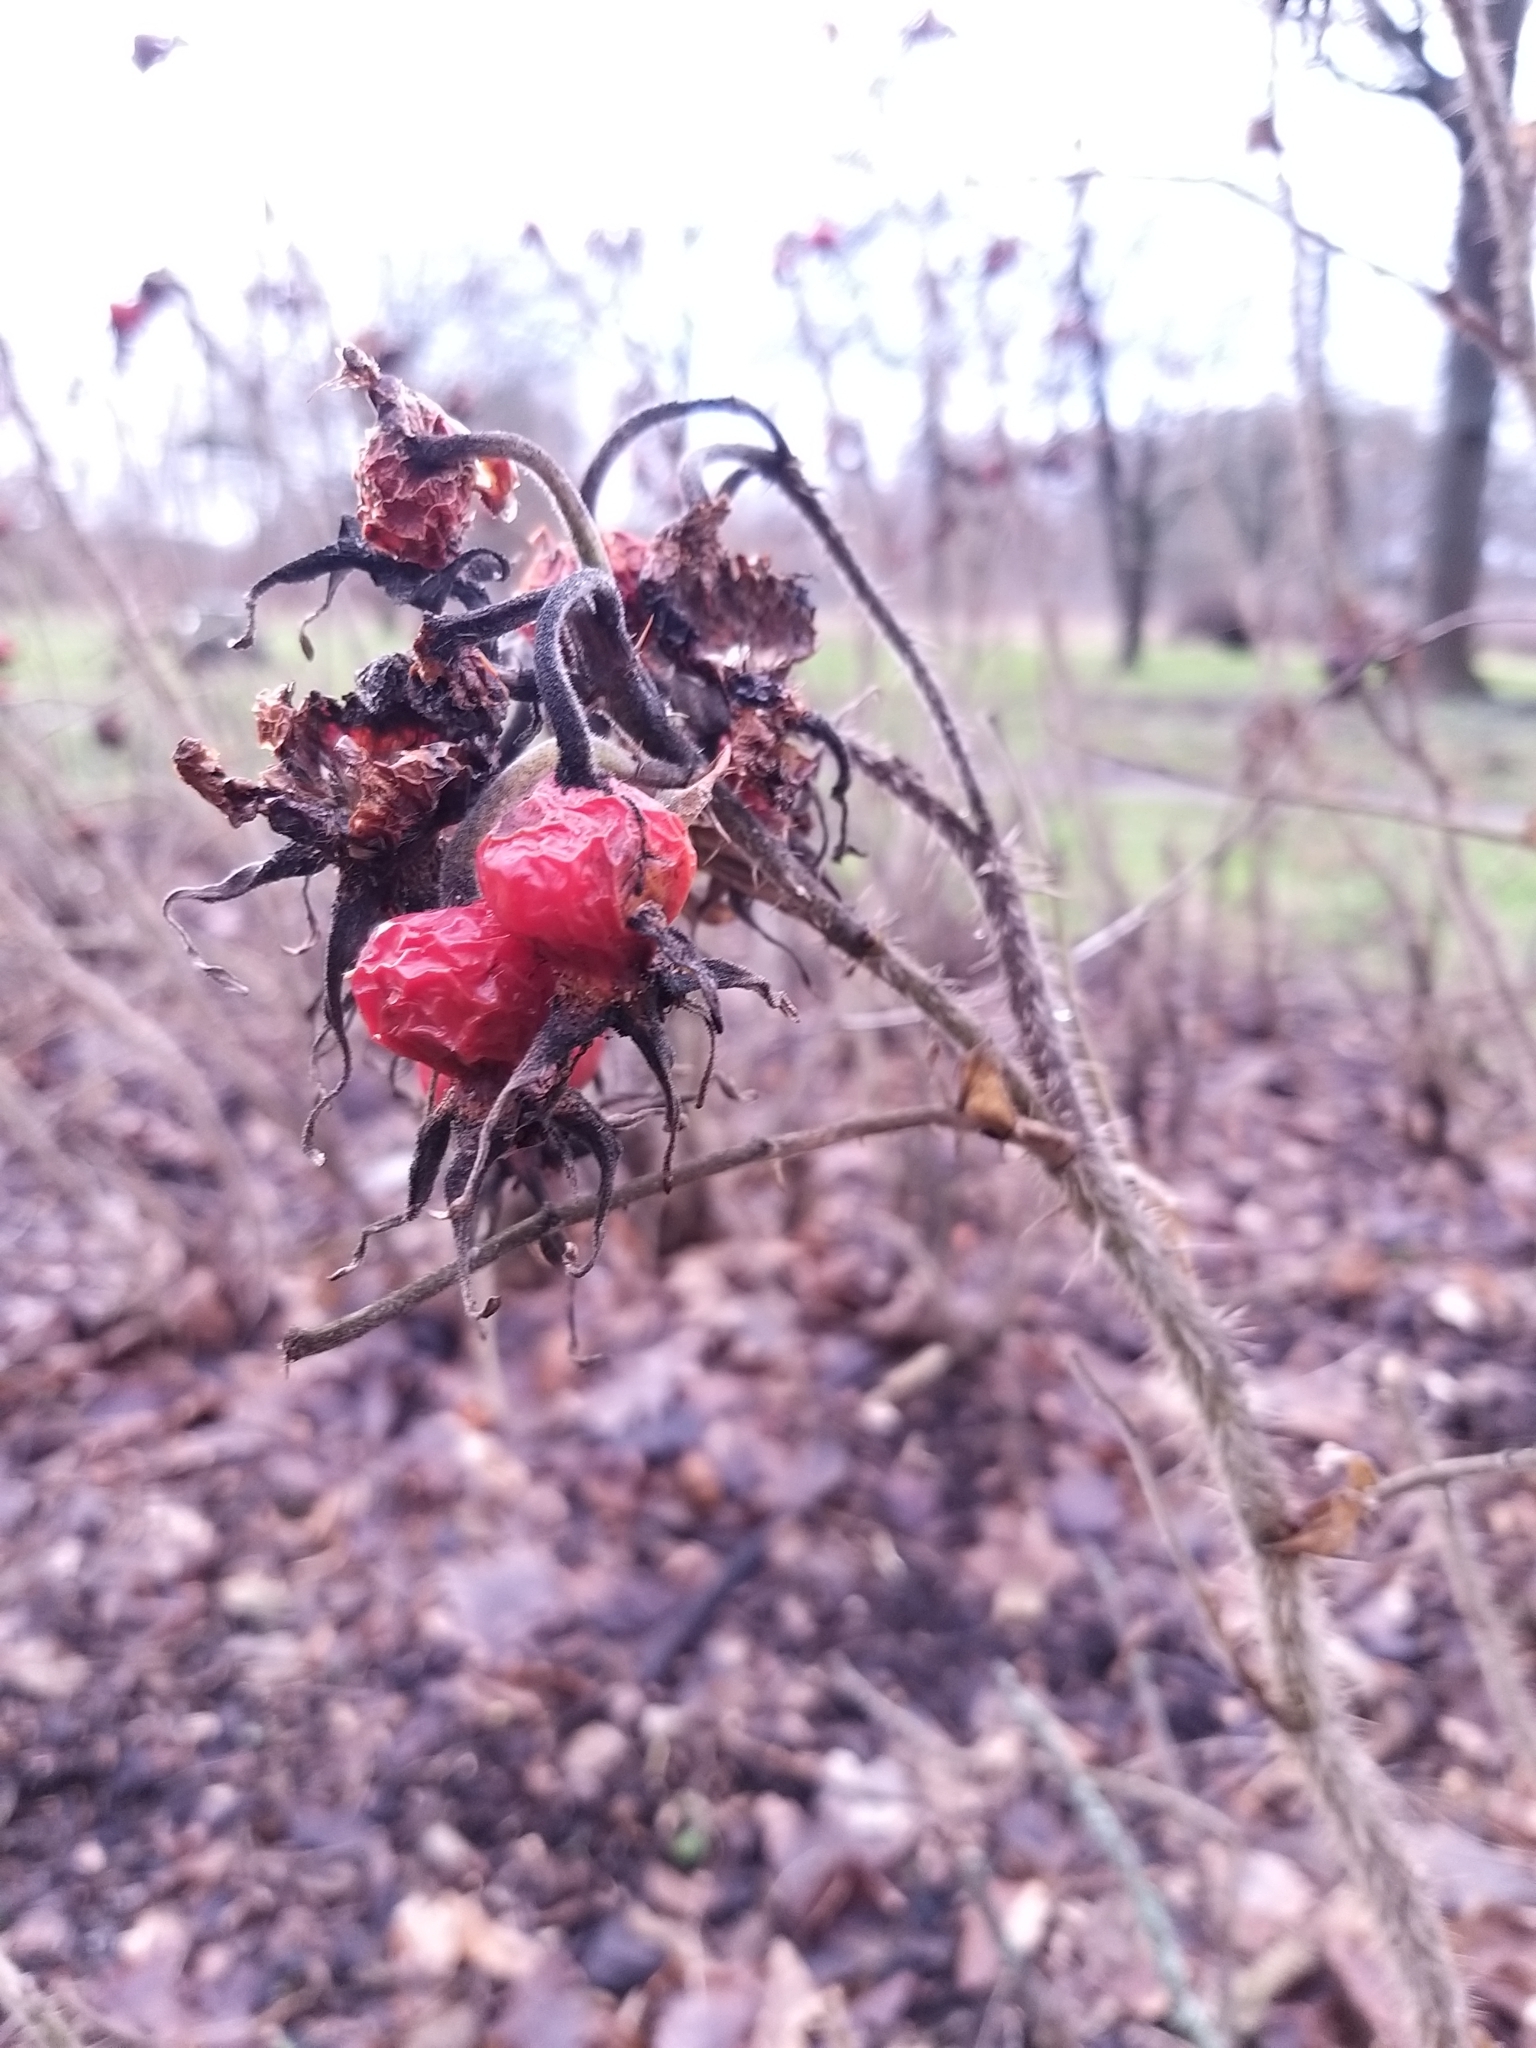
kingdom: Plantae
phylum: Tracheophyta
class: Magnoliopsida
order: Rosales
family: Rosaceae
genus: Rosa
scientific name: Rosa rugosa
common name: Japanese rose
